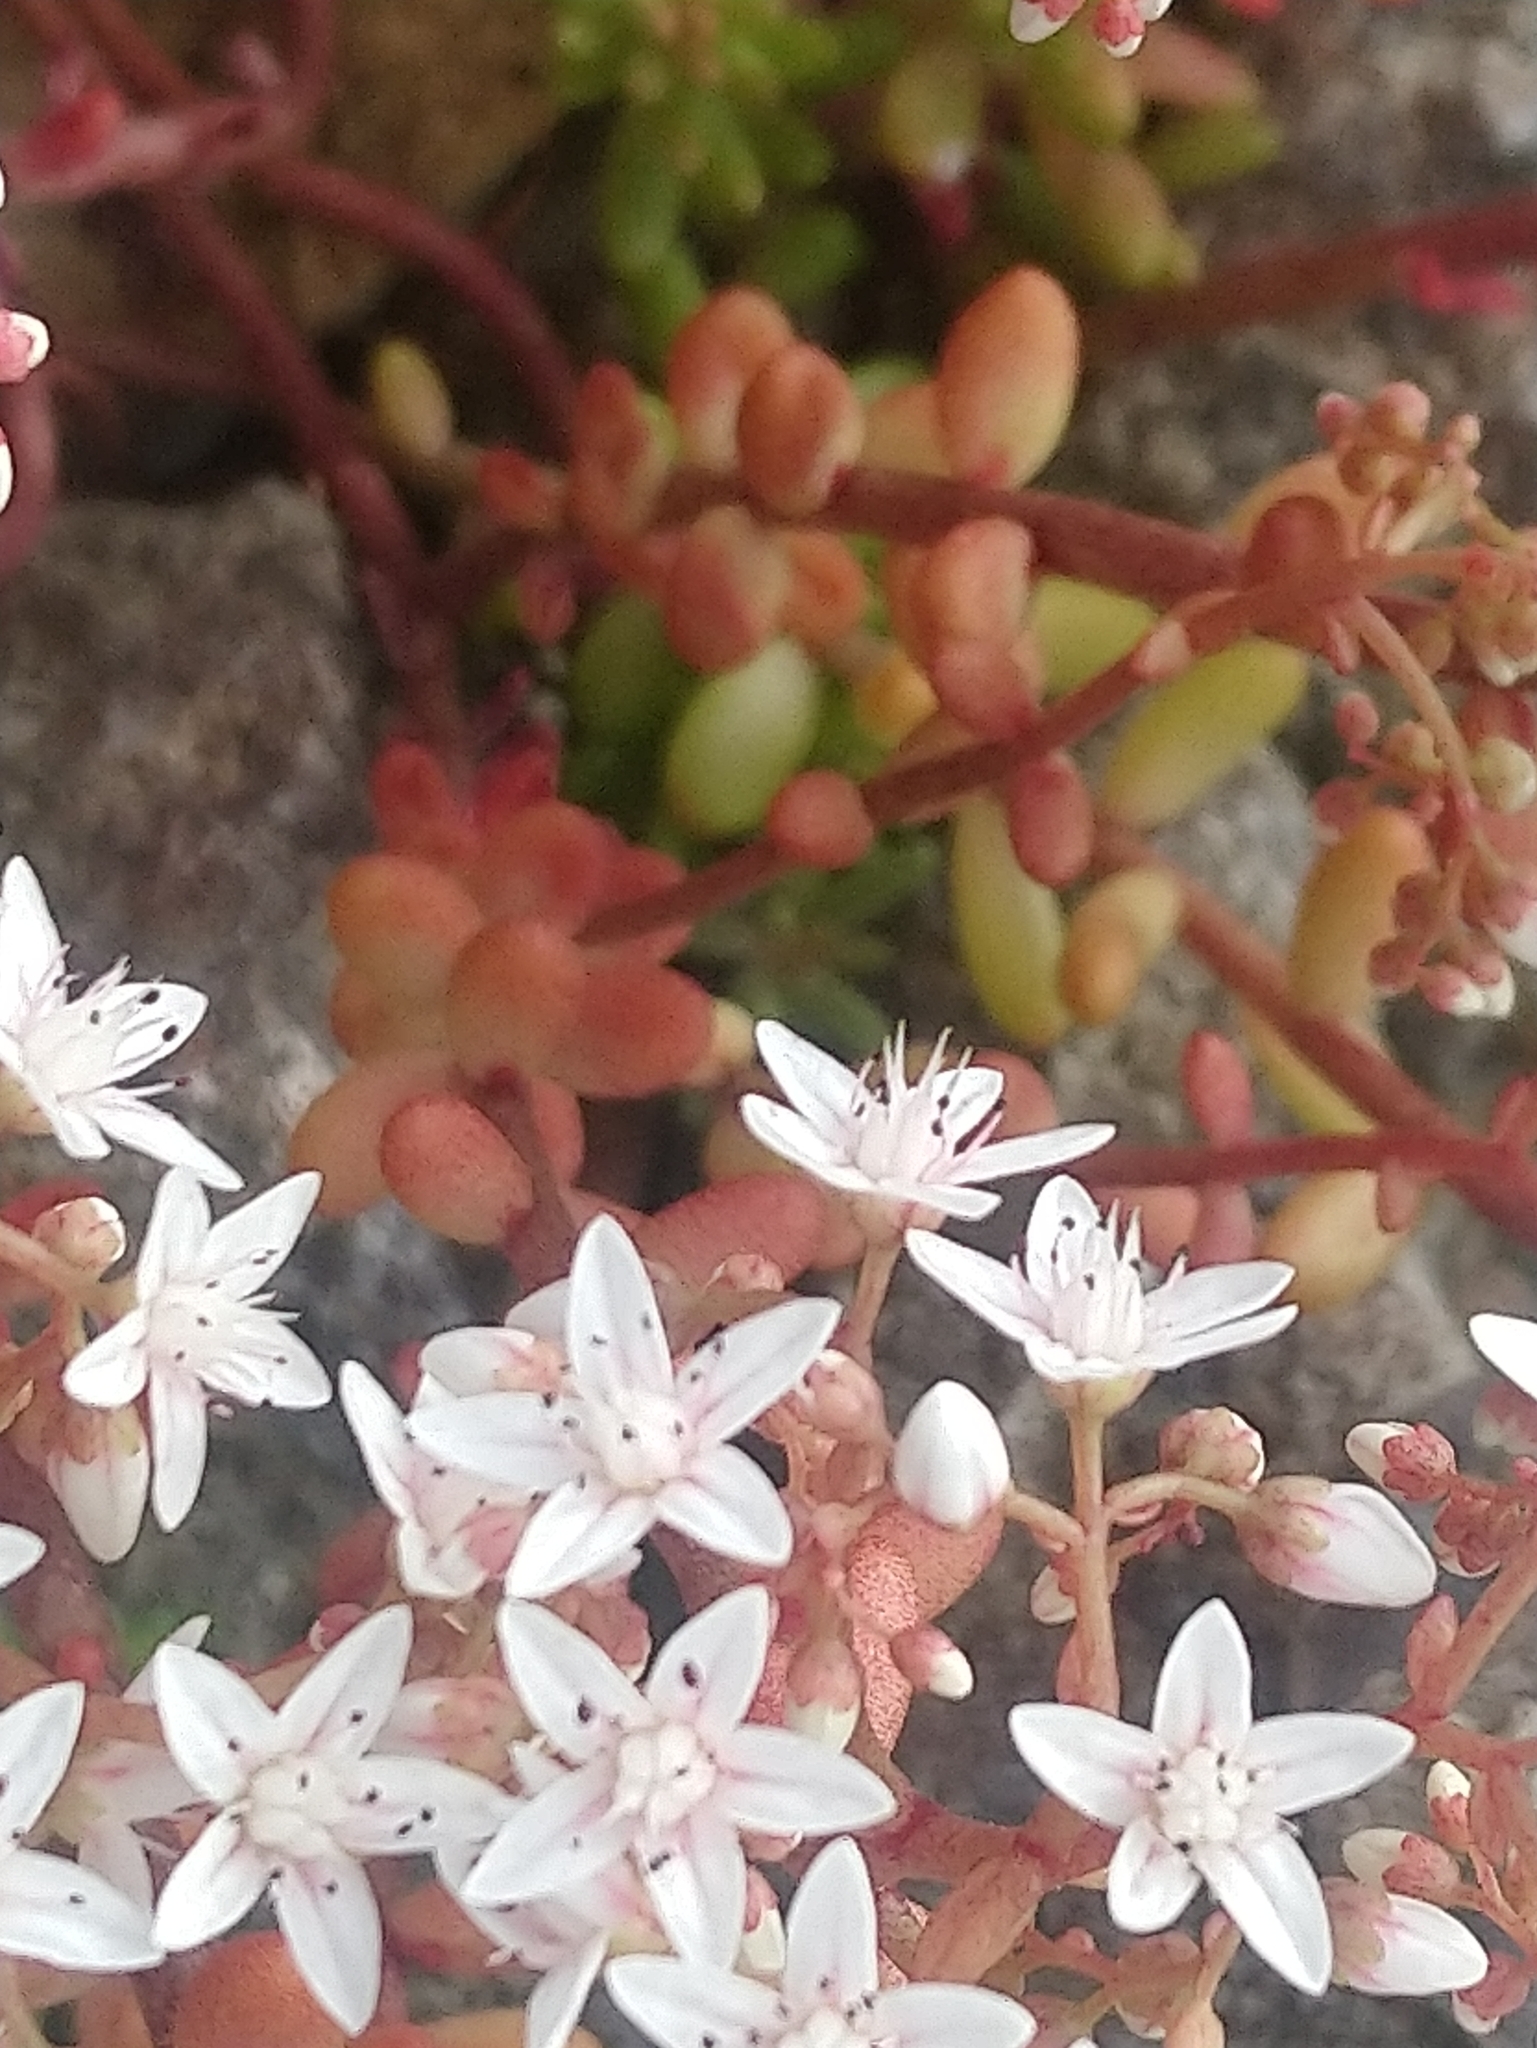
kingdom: Plantae
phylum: Tracheophyta
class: Magnoliopsida
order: Saxifragales
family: Crassulaceae
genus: Sedum
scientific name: Sedum album
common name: White stonecrop
